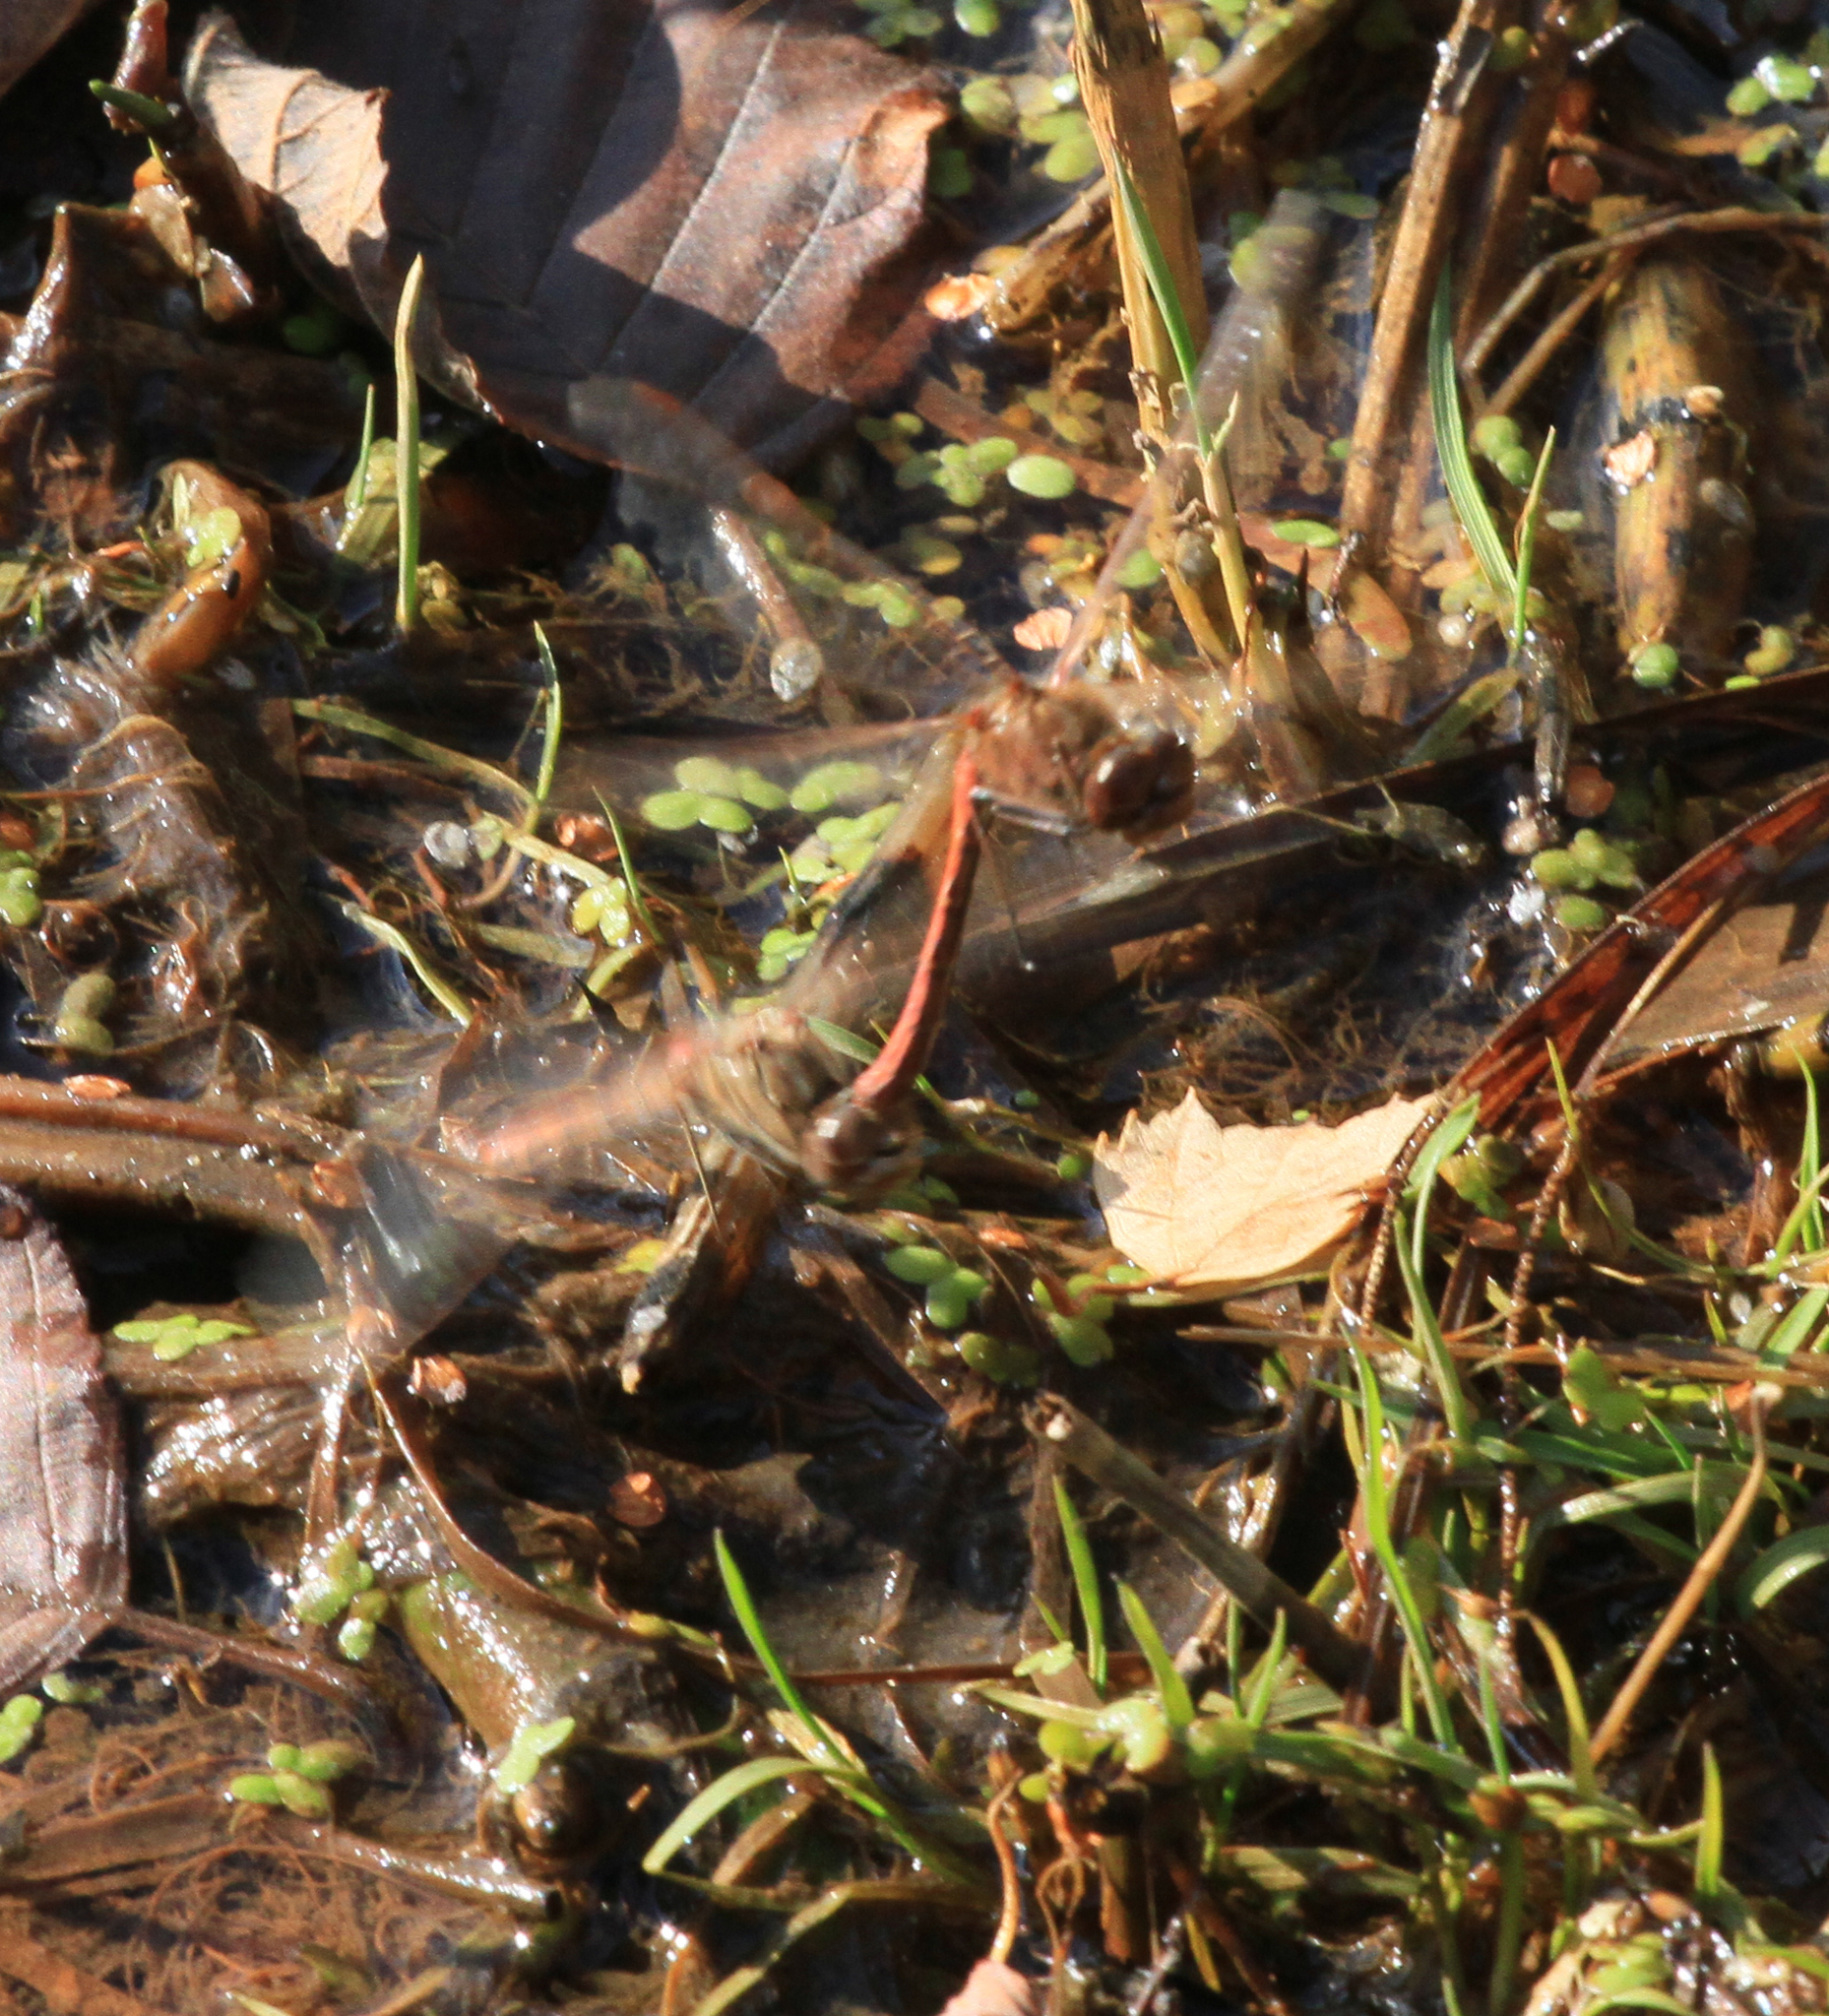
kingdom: Animalia
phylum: Arthropoda
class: Insecta
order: Odonata
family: Libellulidae
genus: Sympetrum
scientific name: Sympetrum vulgatum
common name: Vagrant darter
